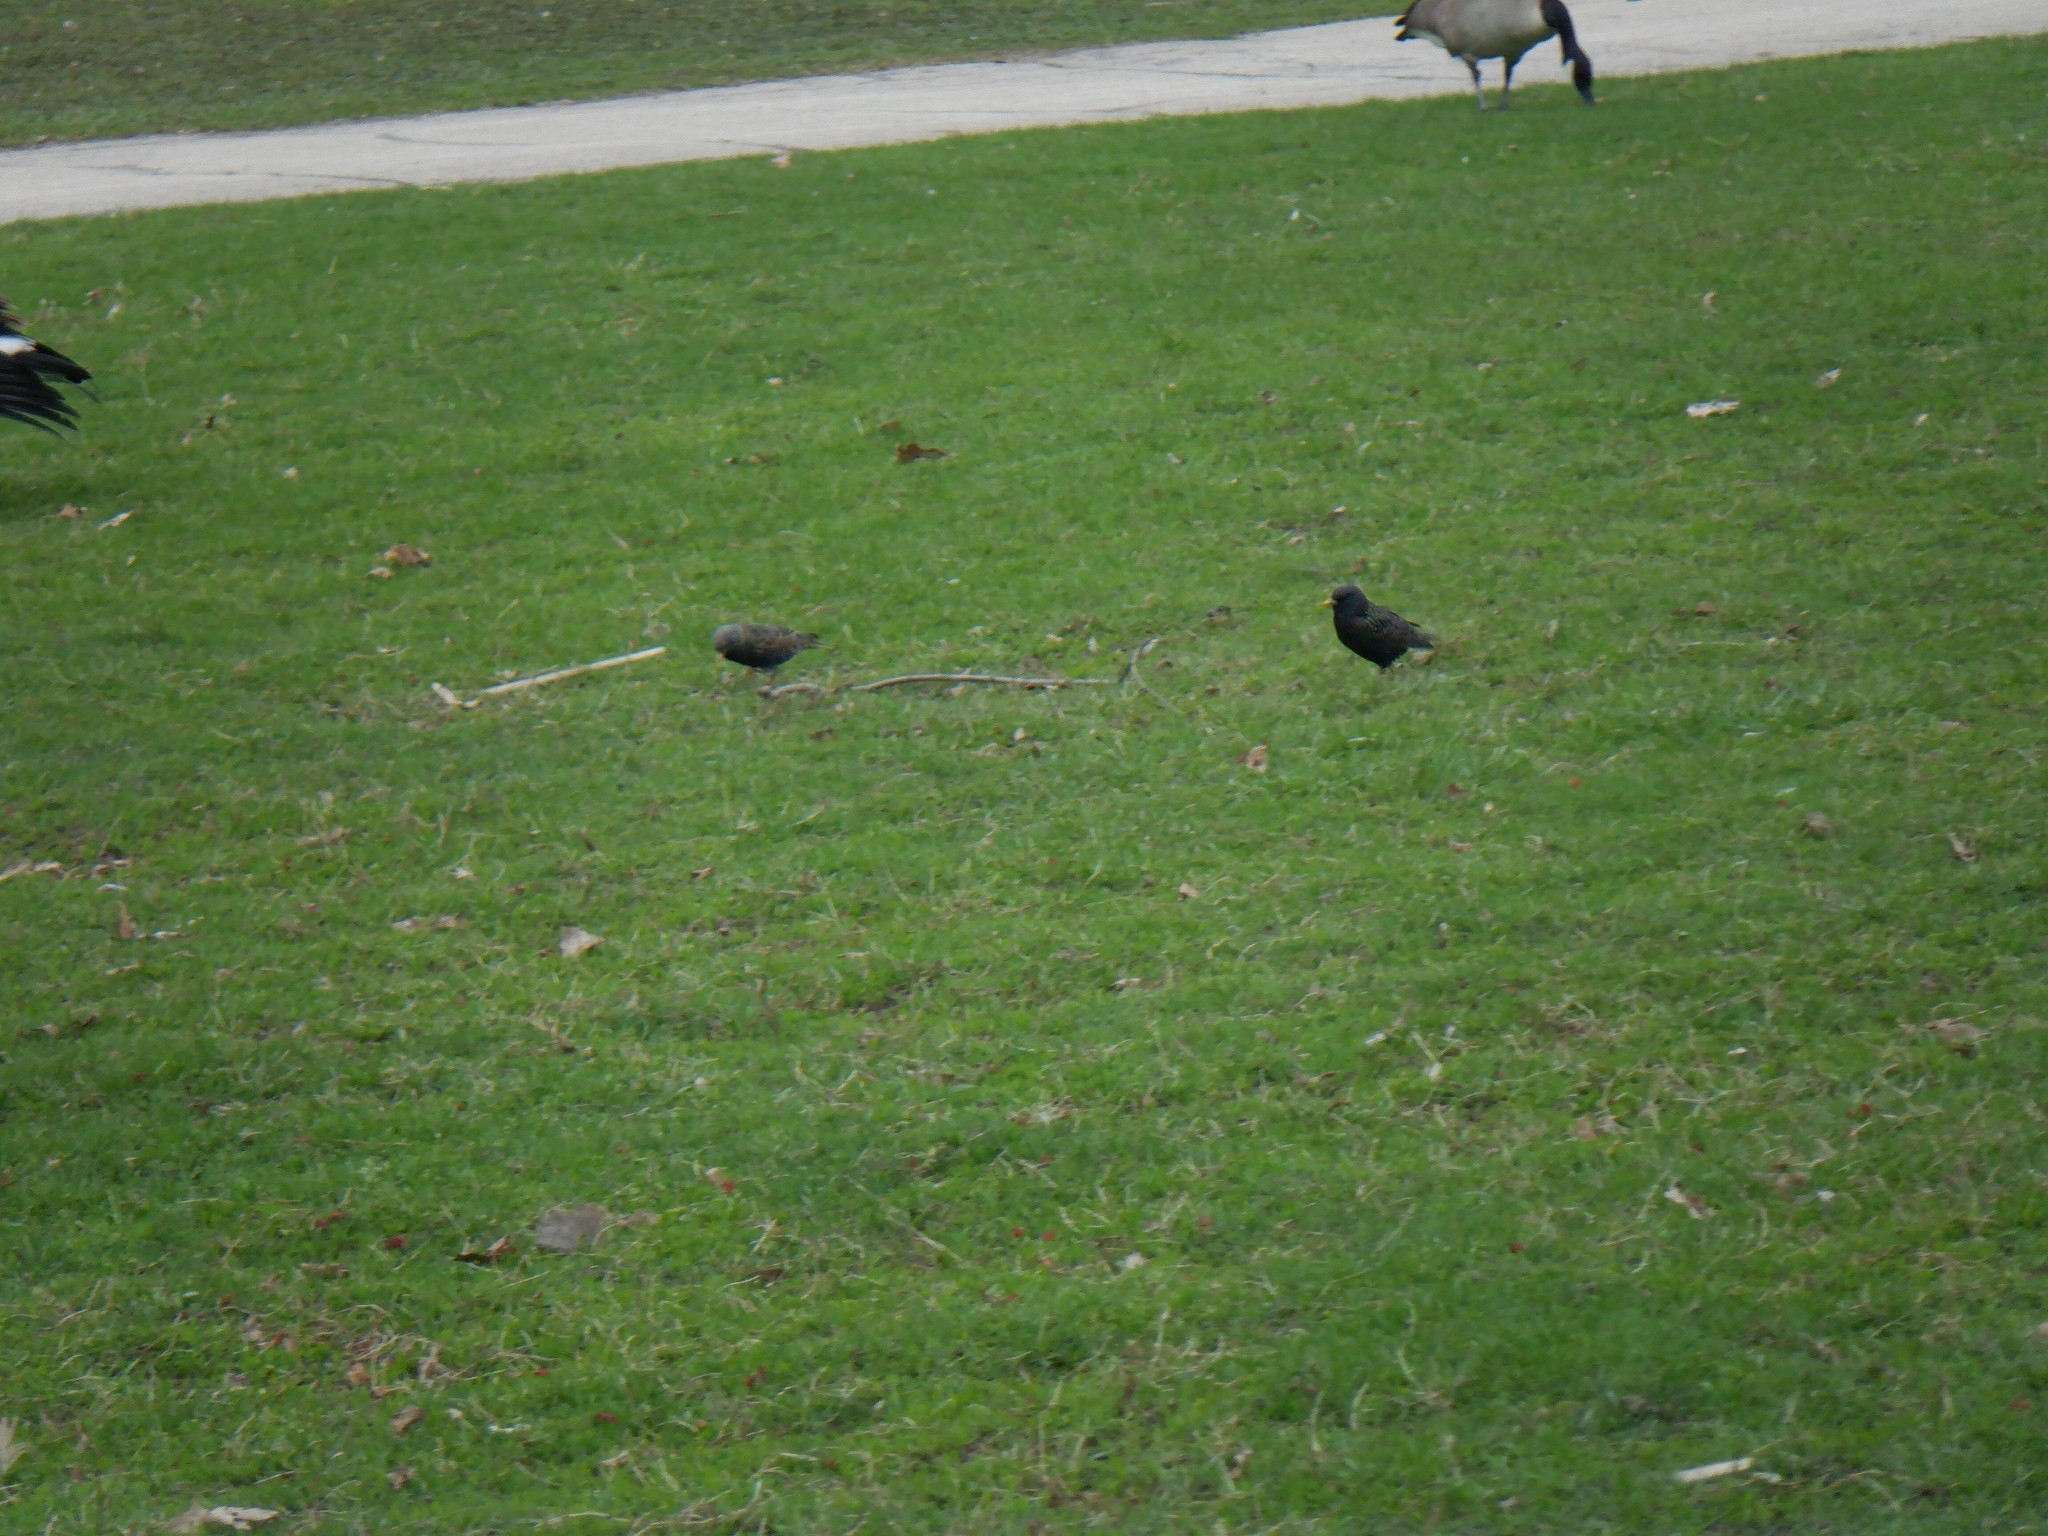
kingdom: Animalia
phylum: Chordata
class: Aves
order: Passeriformes
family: Sturnidae
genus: Sturnus
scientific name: Sturnus vulgaris
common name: Common starling
